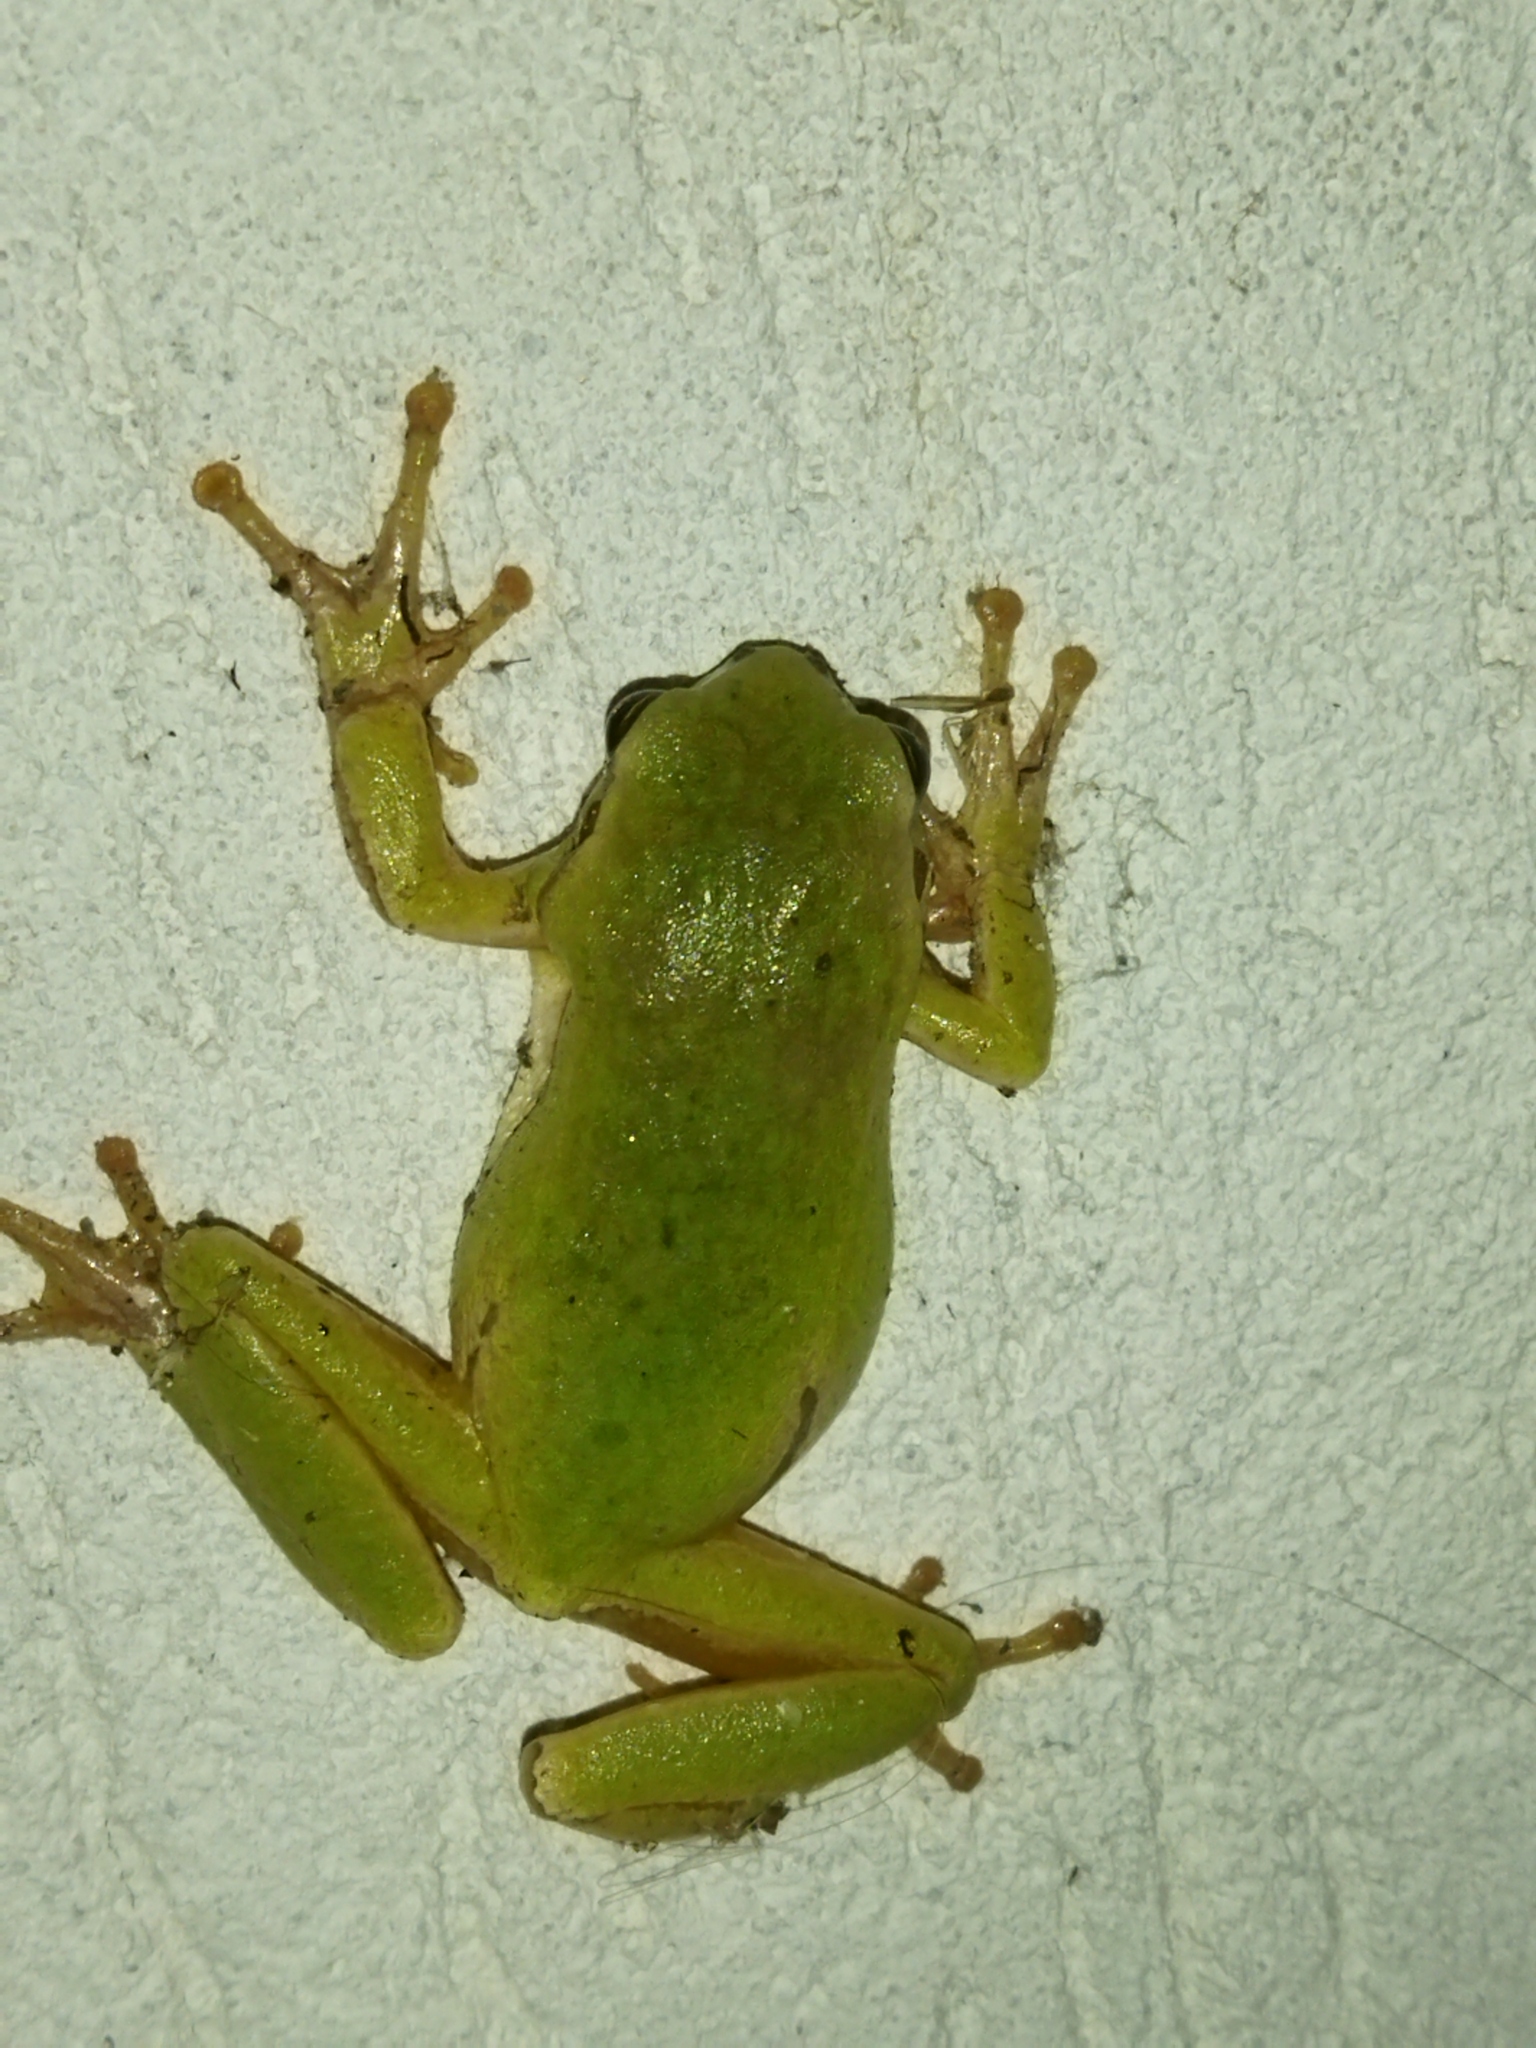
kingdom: Animalia
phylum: Chordata
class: Amphibia
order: Anura
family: Hylidae
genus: Hyla
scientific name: Hyla orientalis
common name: Caucasian treefrog
